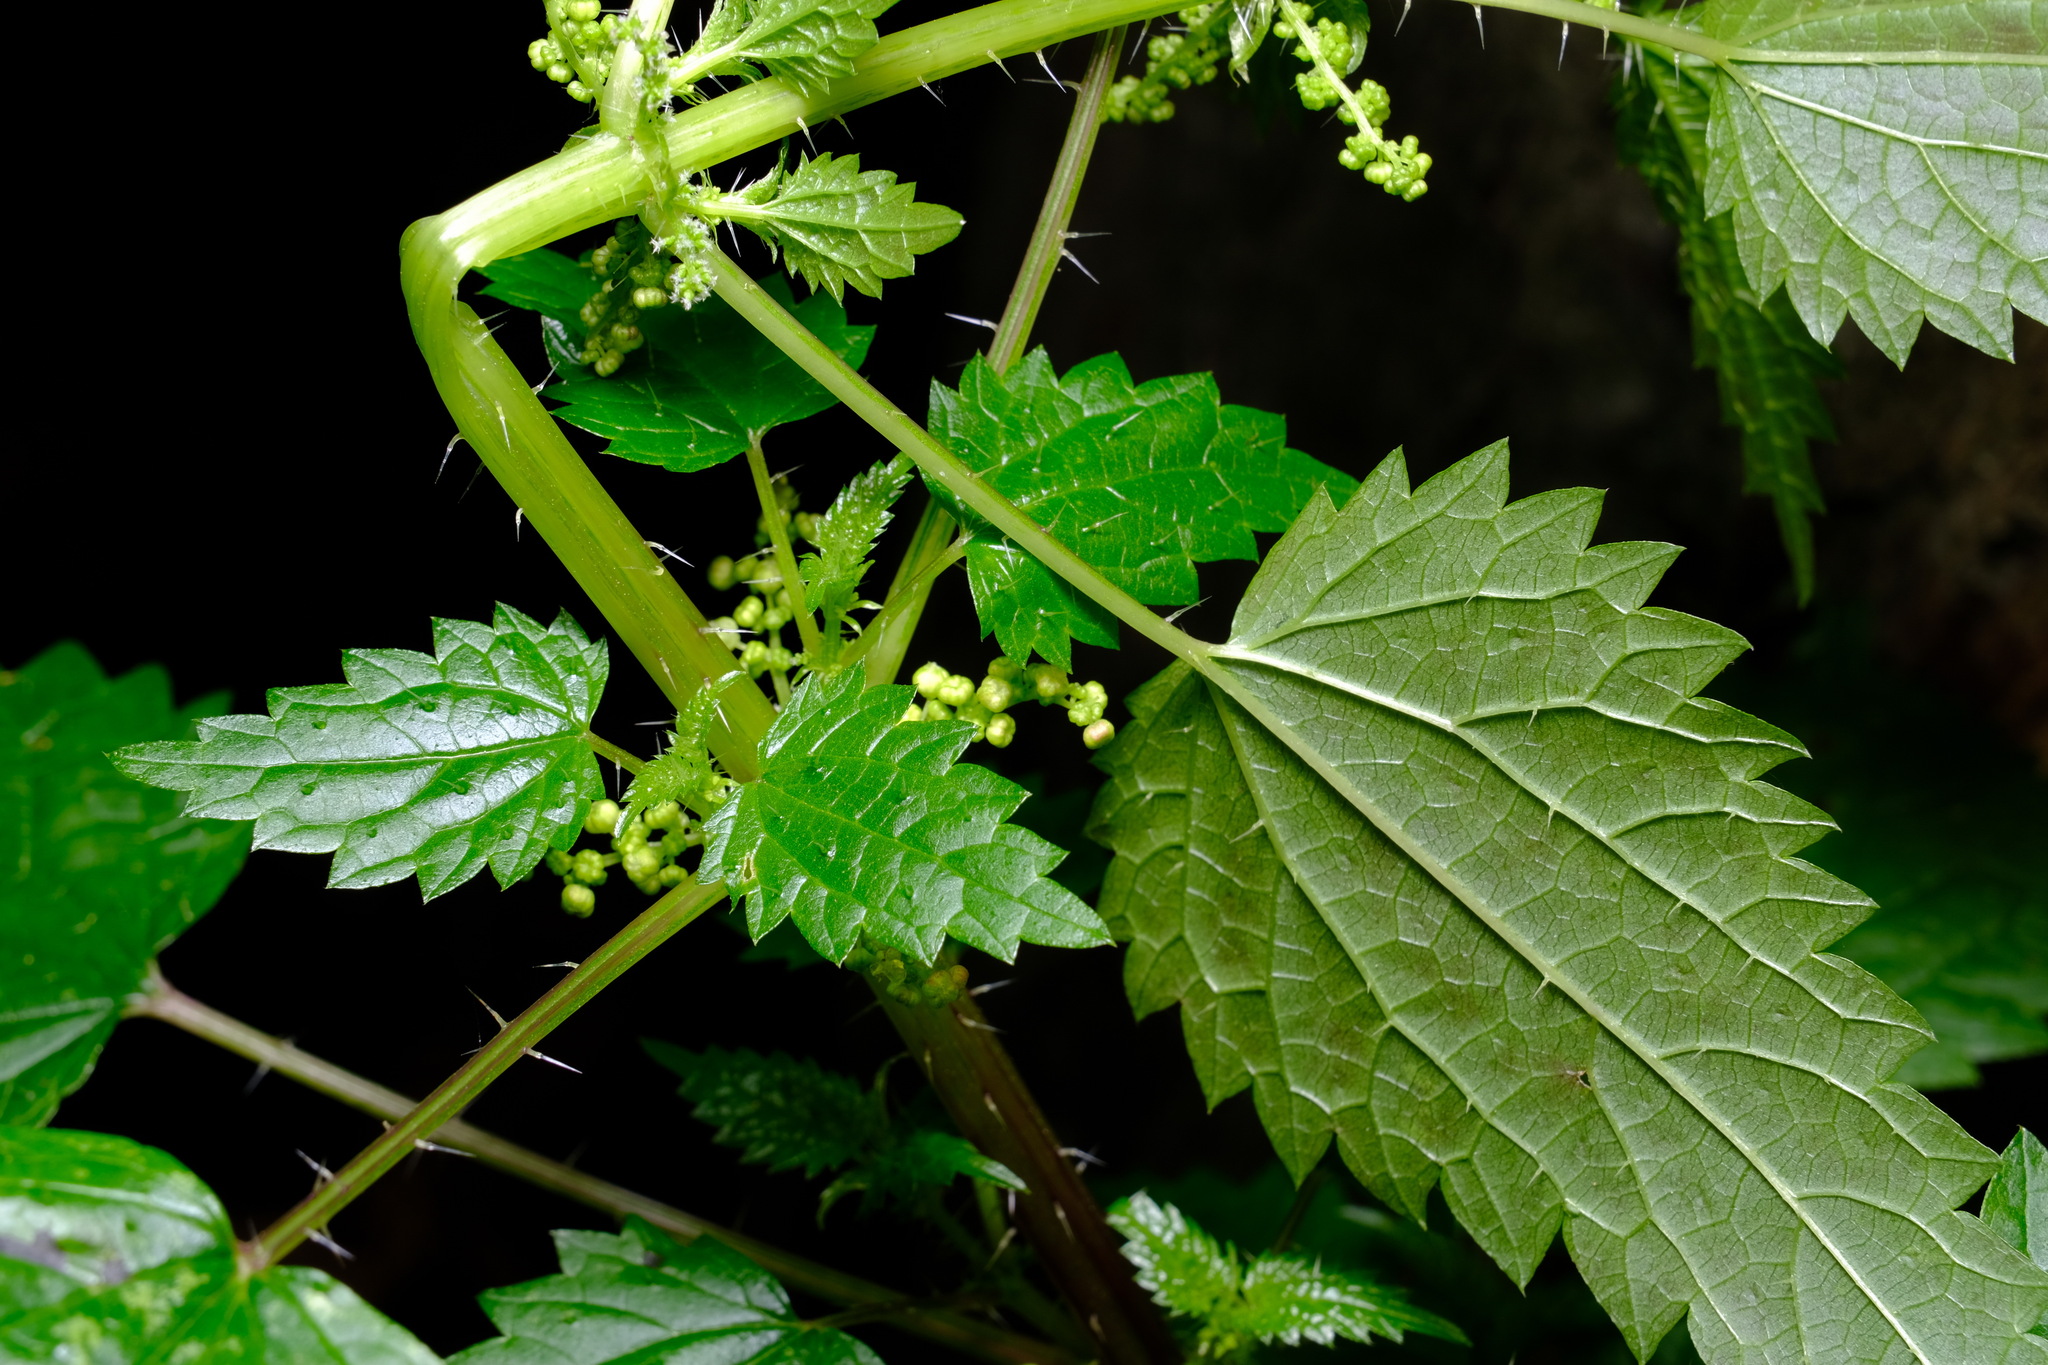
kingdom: Plantae
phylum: Tracheophyta
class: Magnoliopsida
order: Rosales
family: Urticaceae
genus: Urtica
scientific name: Urtica incisa
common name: Scrub nettle
